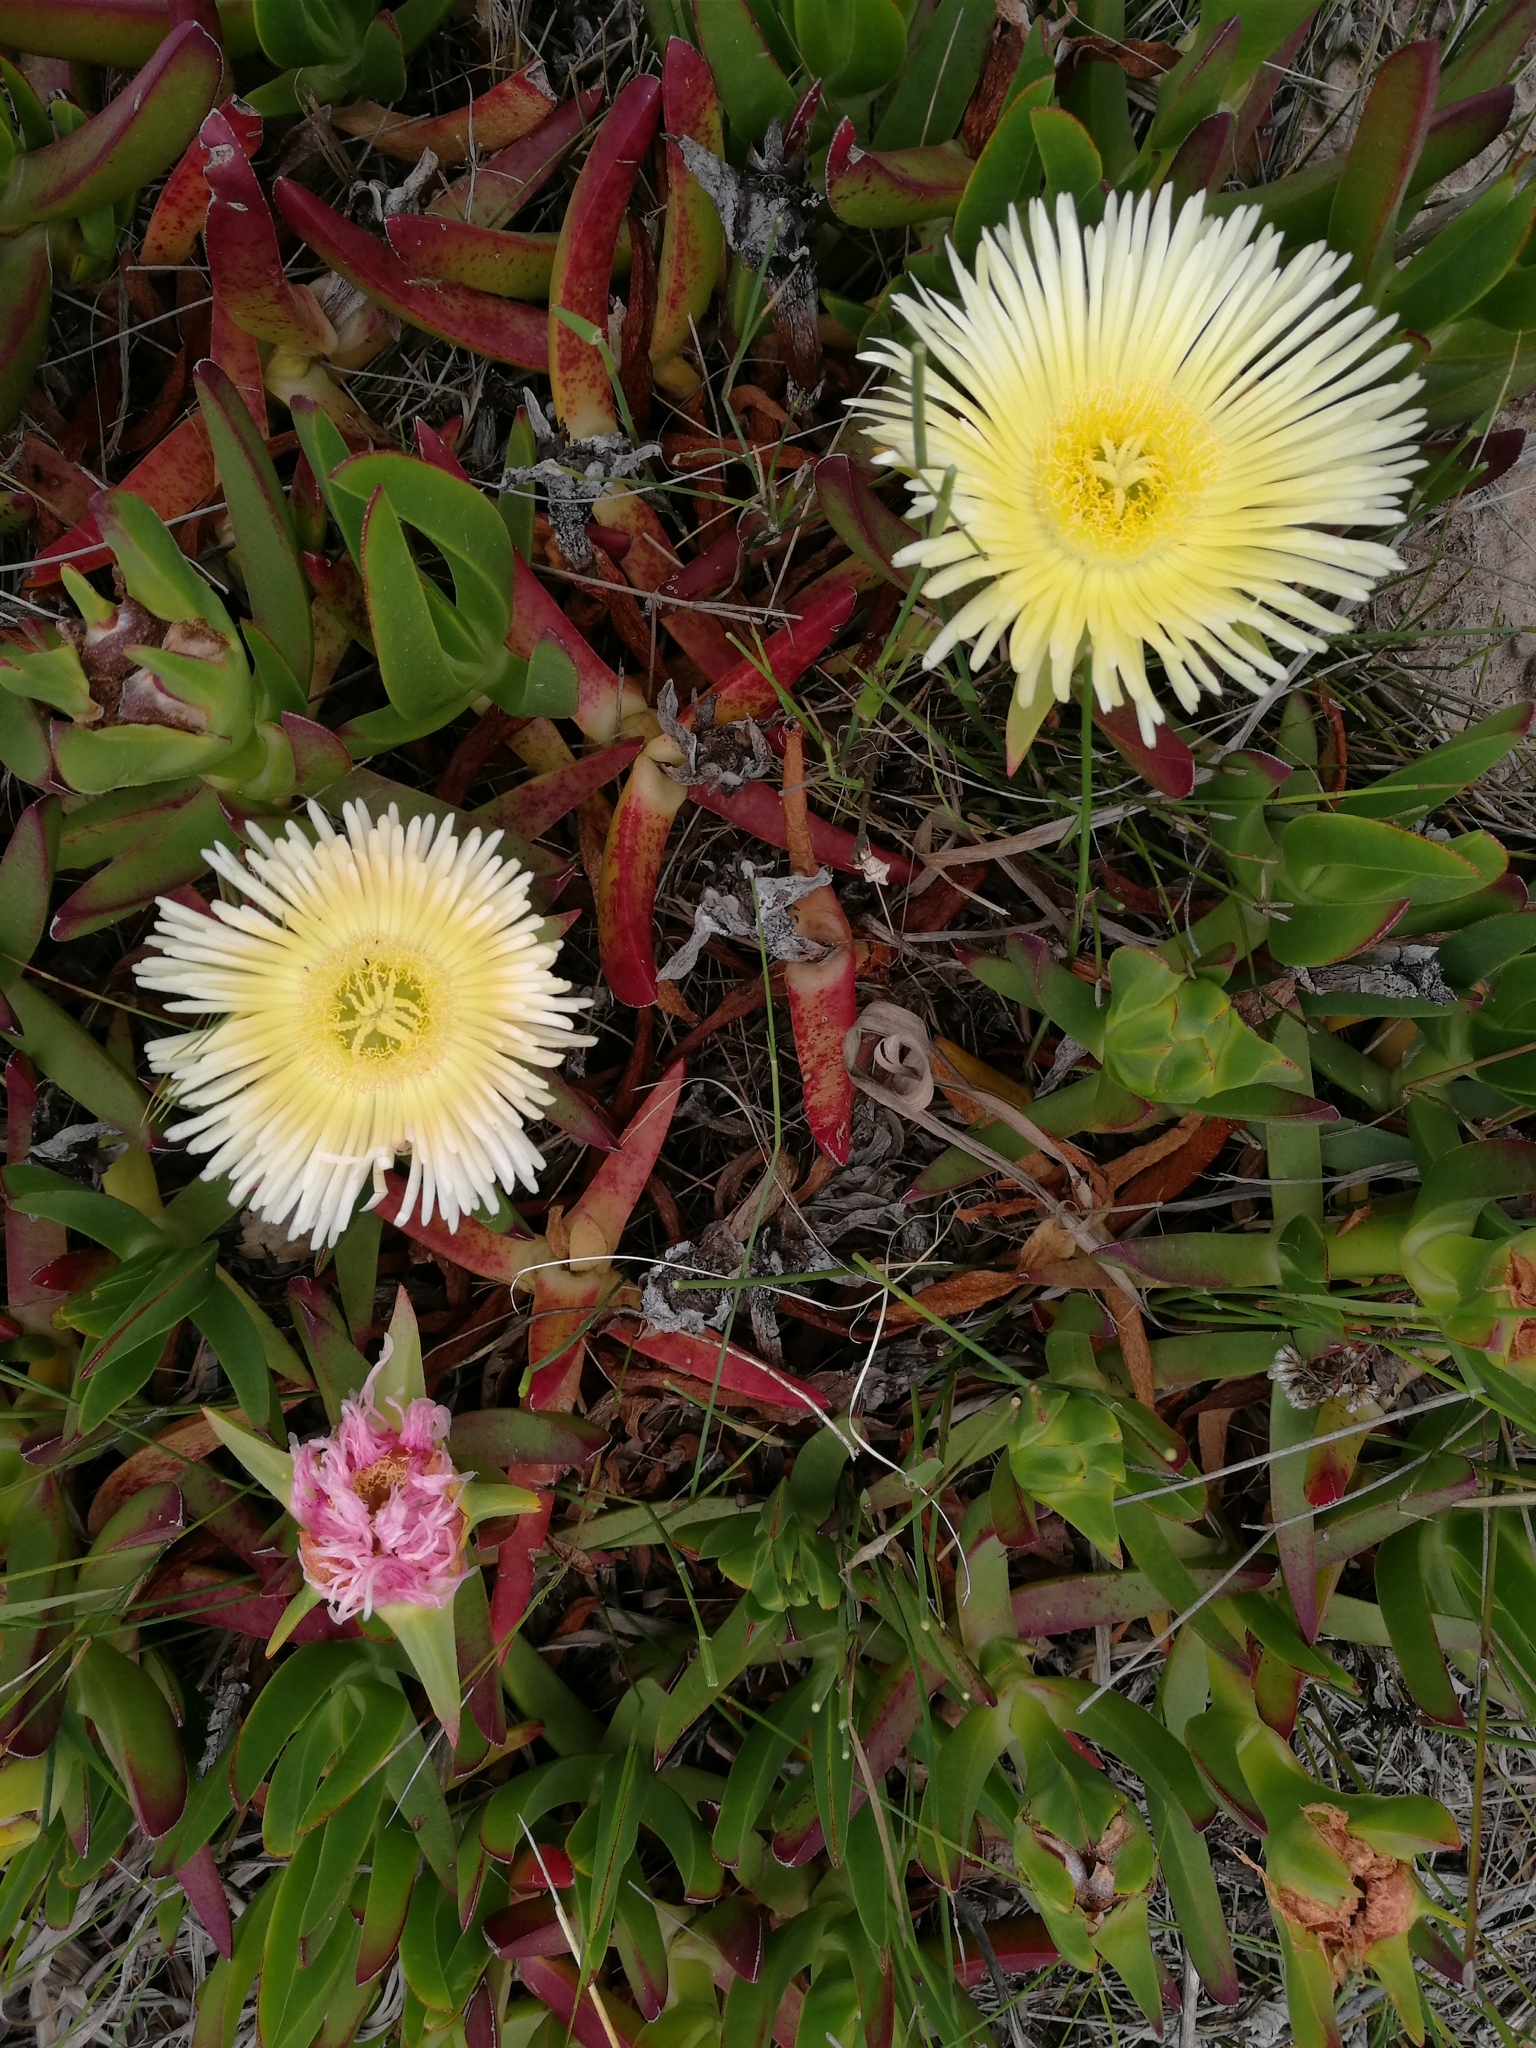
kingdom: Plantae
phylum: Tracheophyta
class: Magnoliopsida
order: Caryophyllales
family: Aizoaceae
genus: Carpobrotus
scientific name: Carpobrotus edulis
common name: Hottentot-fig
